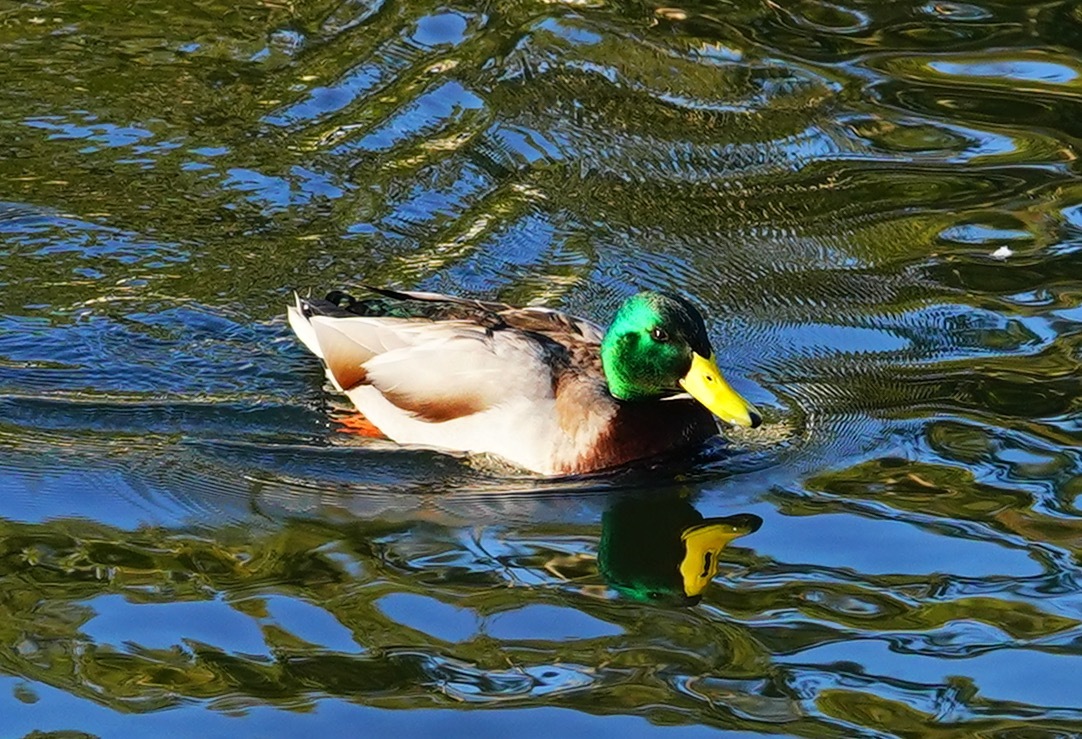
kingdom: Animalia
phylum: Chordata
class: Aves
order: Anseriformes
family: Anatidae
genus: Anas
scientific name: Anas platyrhynchos
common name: Mallard
